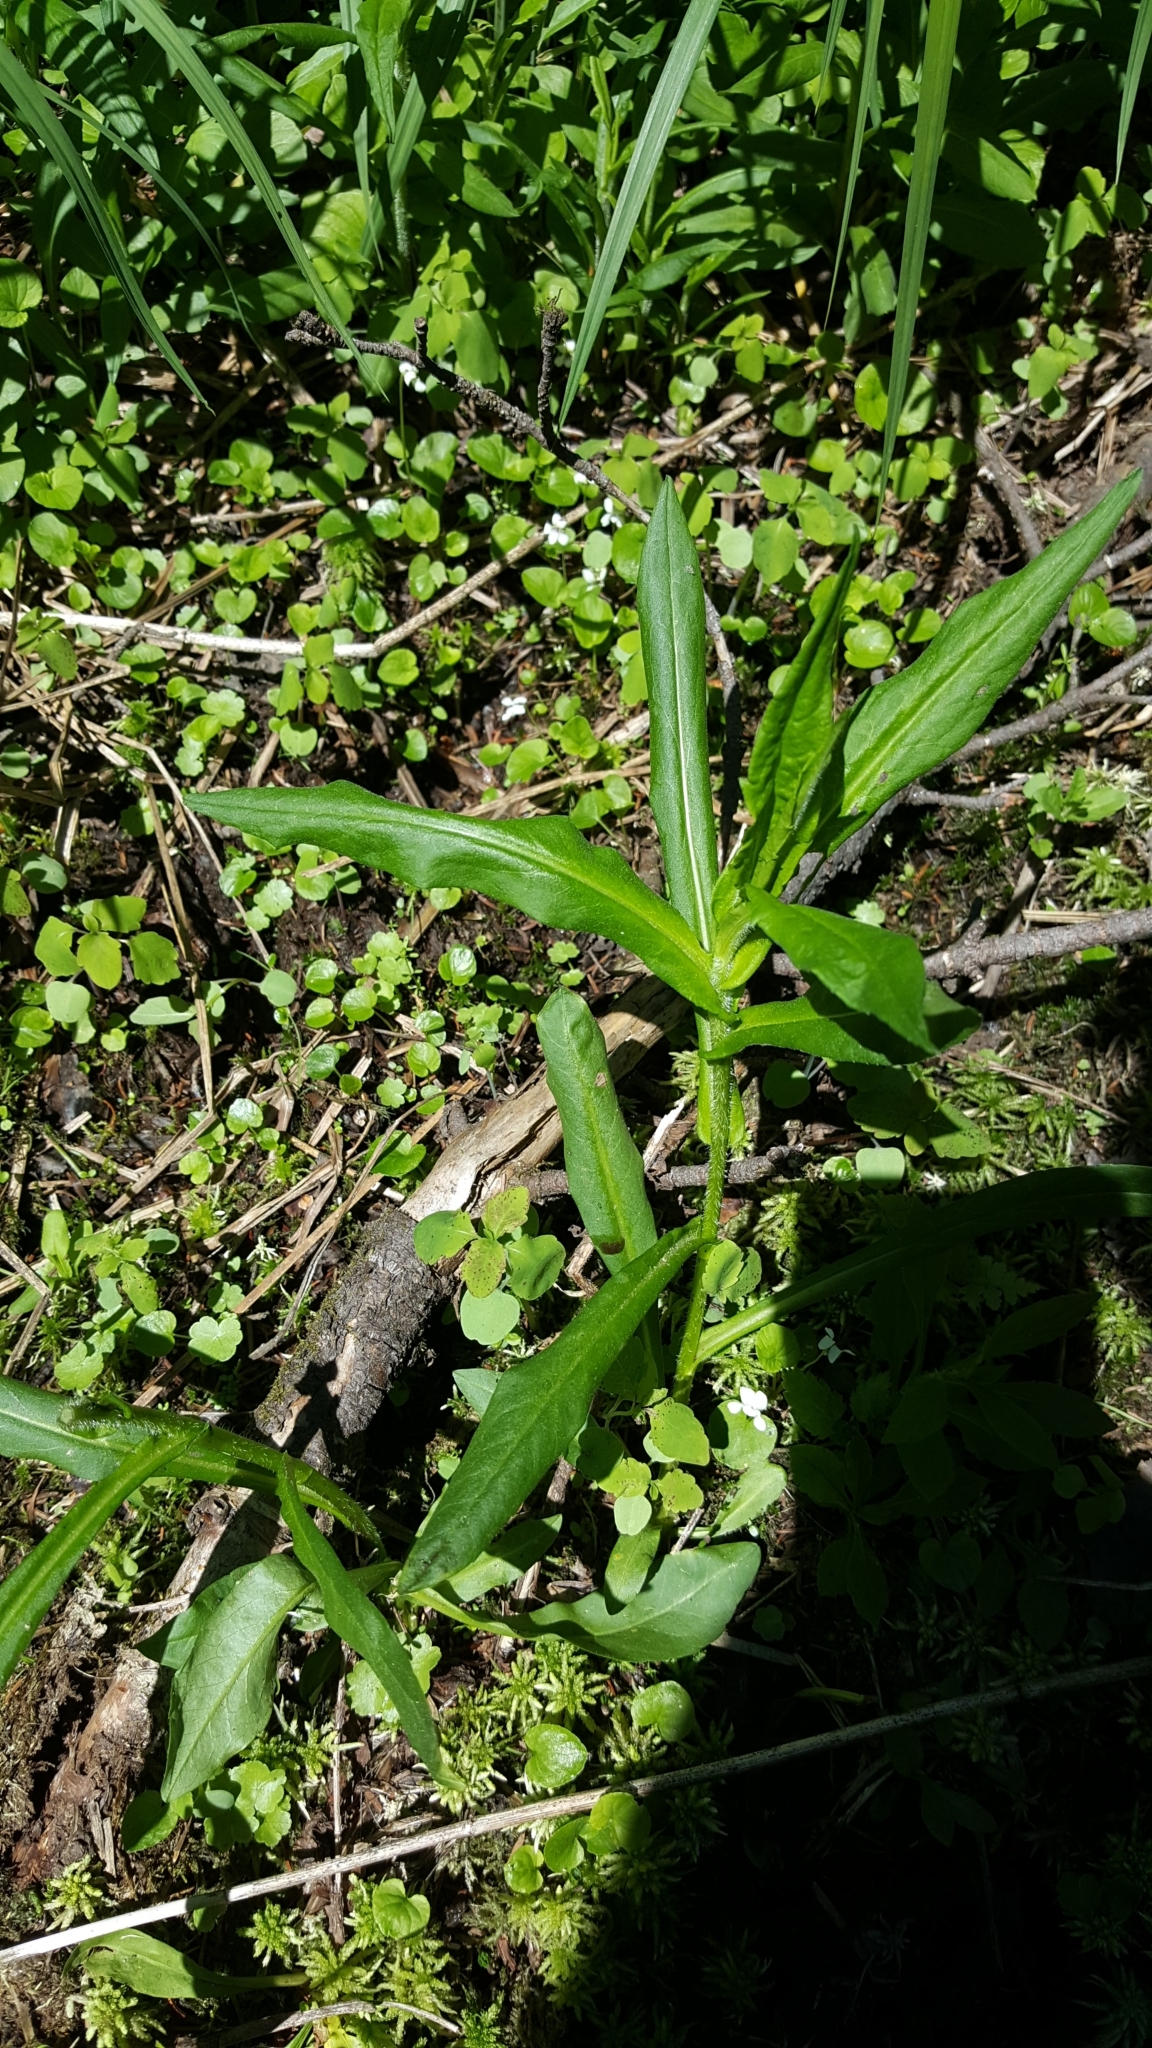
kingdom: Plantae
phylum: Tracheophyta
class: Magnoliopsida
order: Asterales
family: Asteraceae
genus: Symphyotrichum
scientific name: Symphyotrichum puniceum
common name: Bog aster
